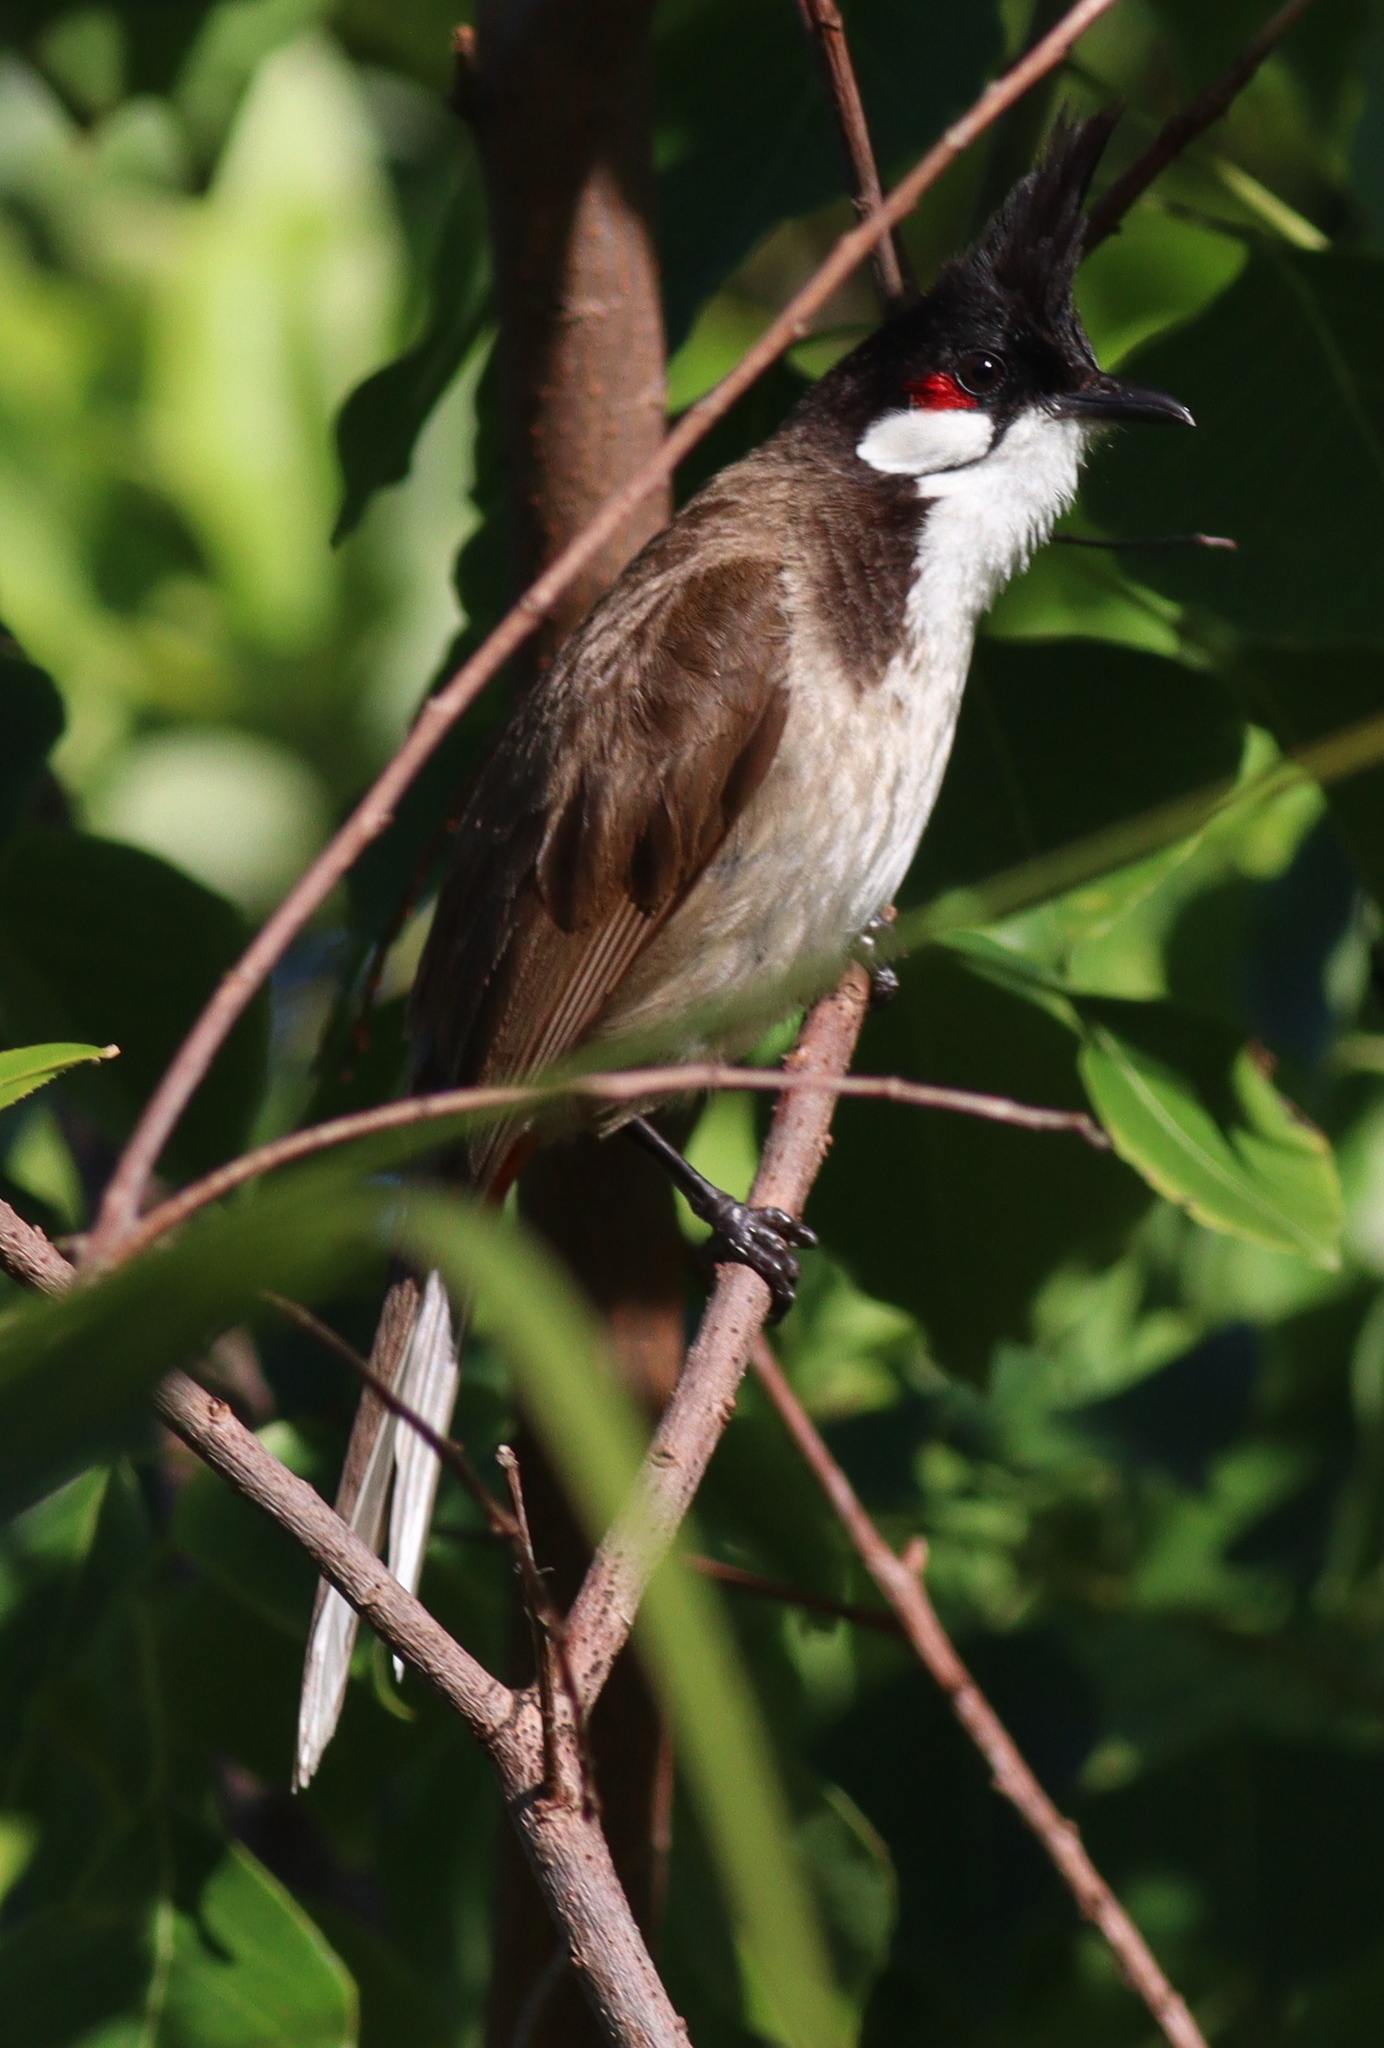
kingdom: Animalia
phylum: Chordata
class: Aves
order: Passeriformes
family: Pycnonotidae
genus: Pycnonotus
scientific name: Pycnonotus jocosus
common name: Red-whiskered bulbul
